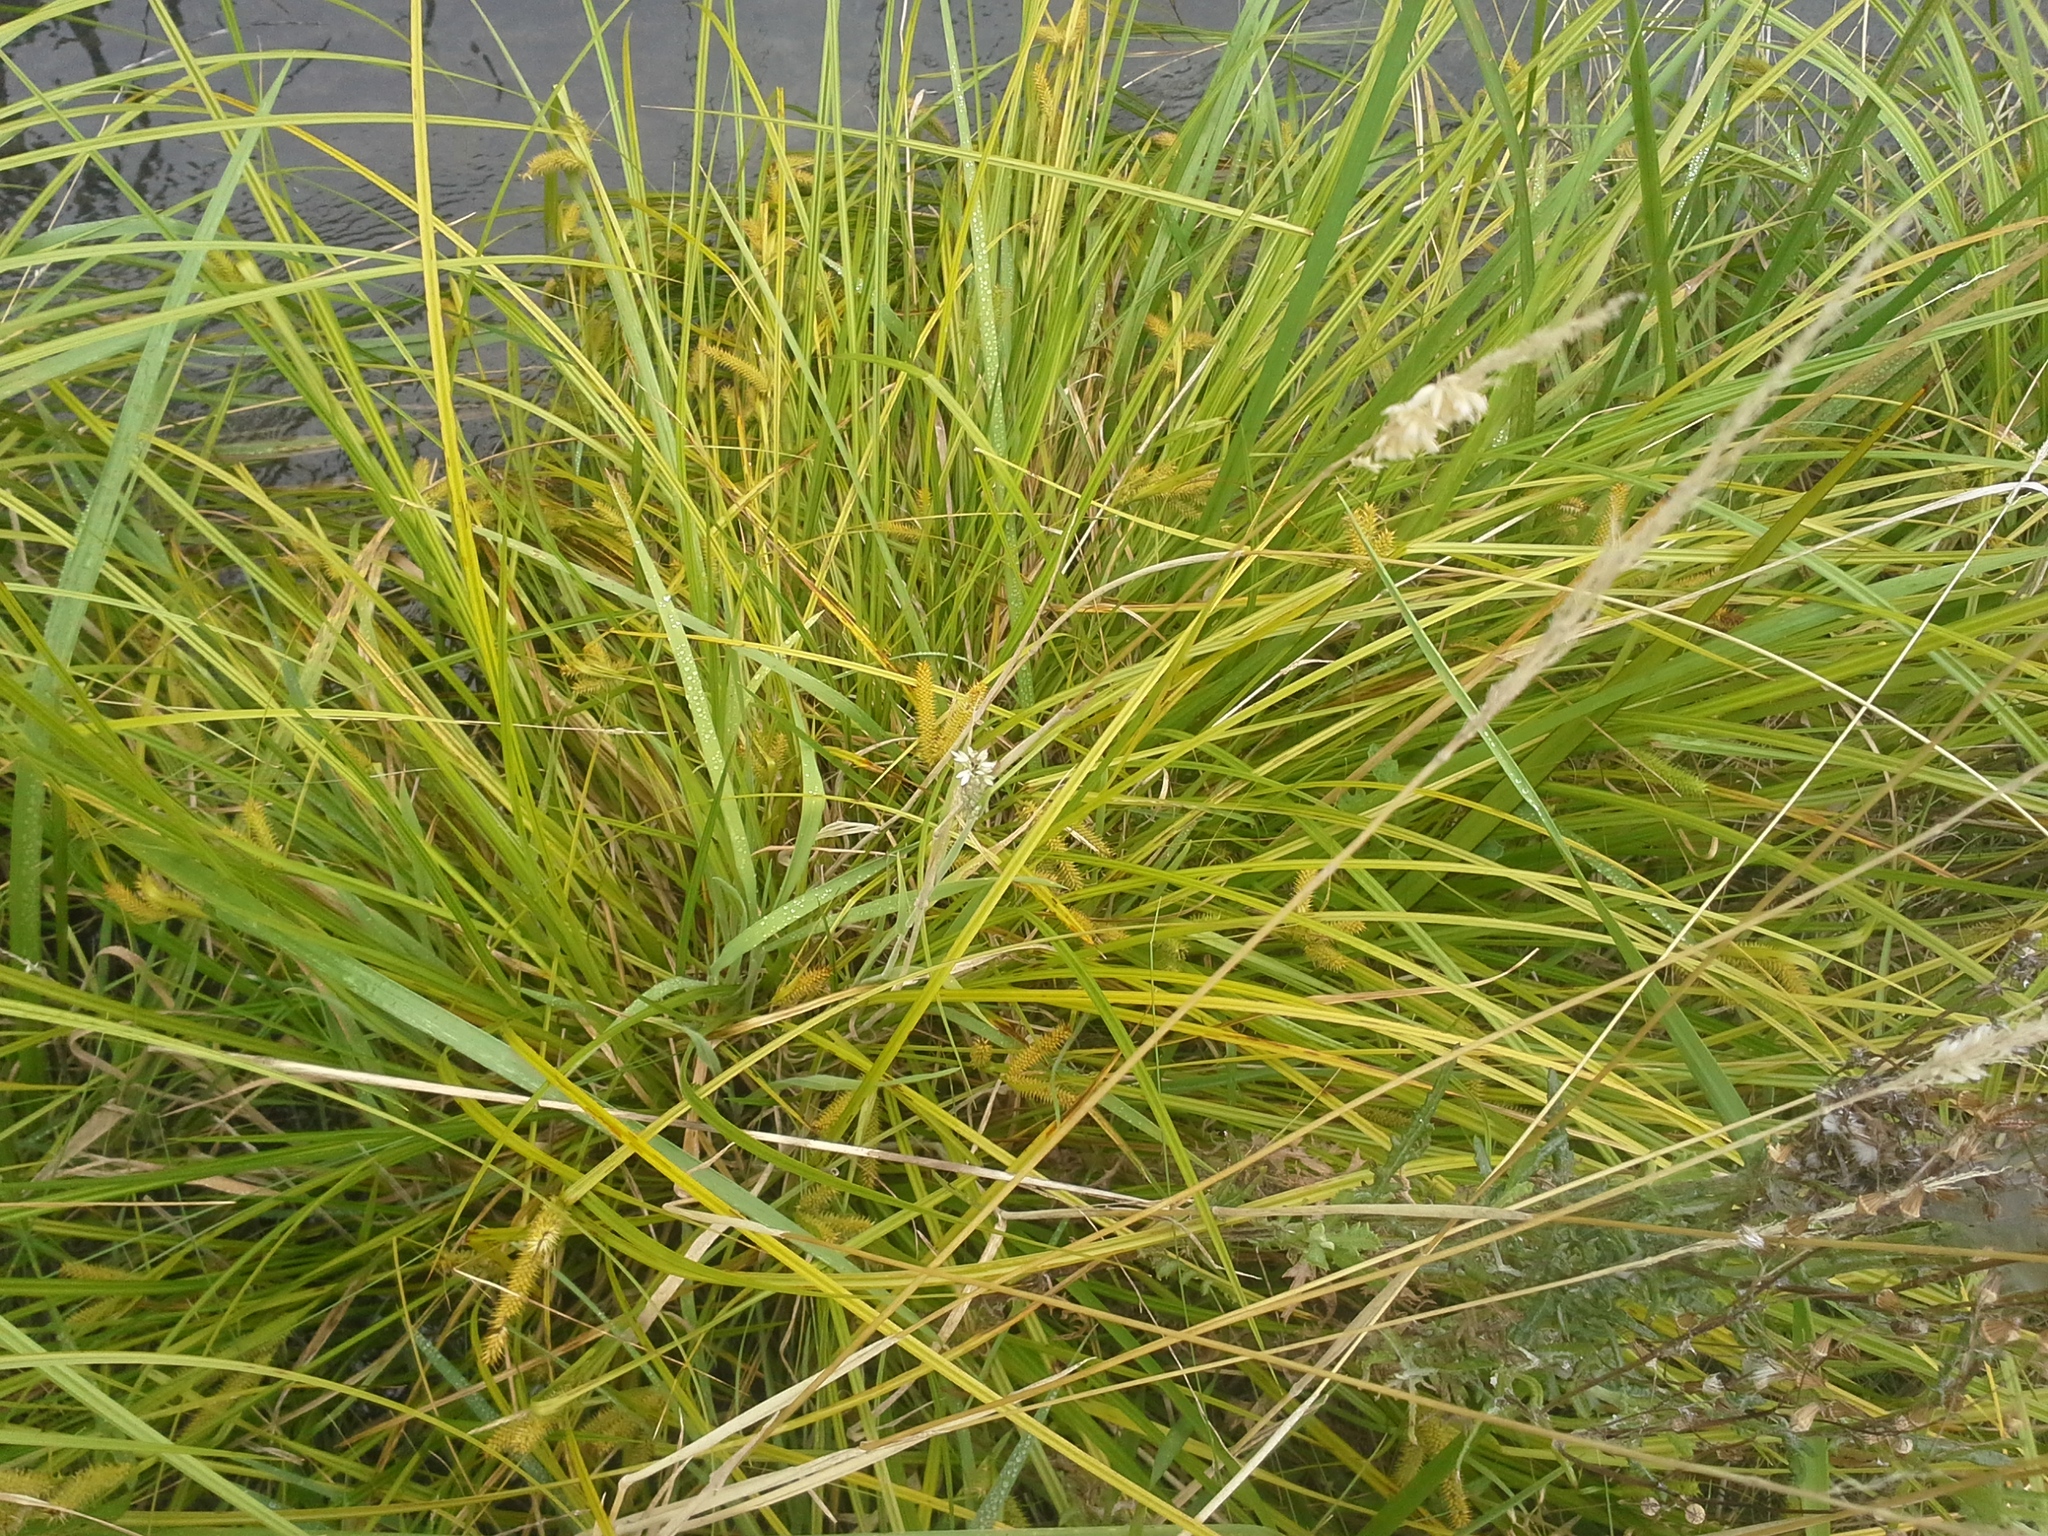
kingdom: Plantae
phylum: Tracheophyta
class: Liliopsida
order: Poales
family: Cyperaceae
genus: Carex
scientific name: Carex maorica
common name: Maori sedge
